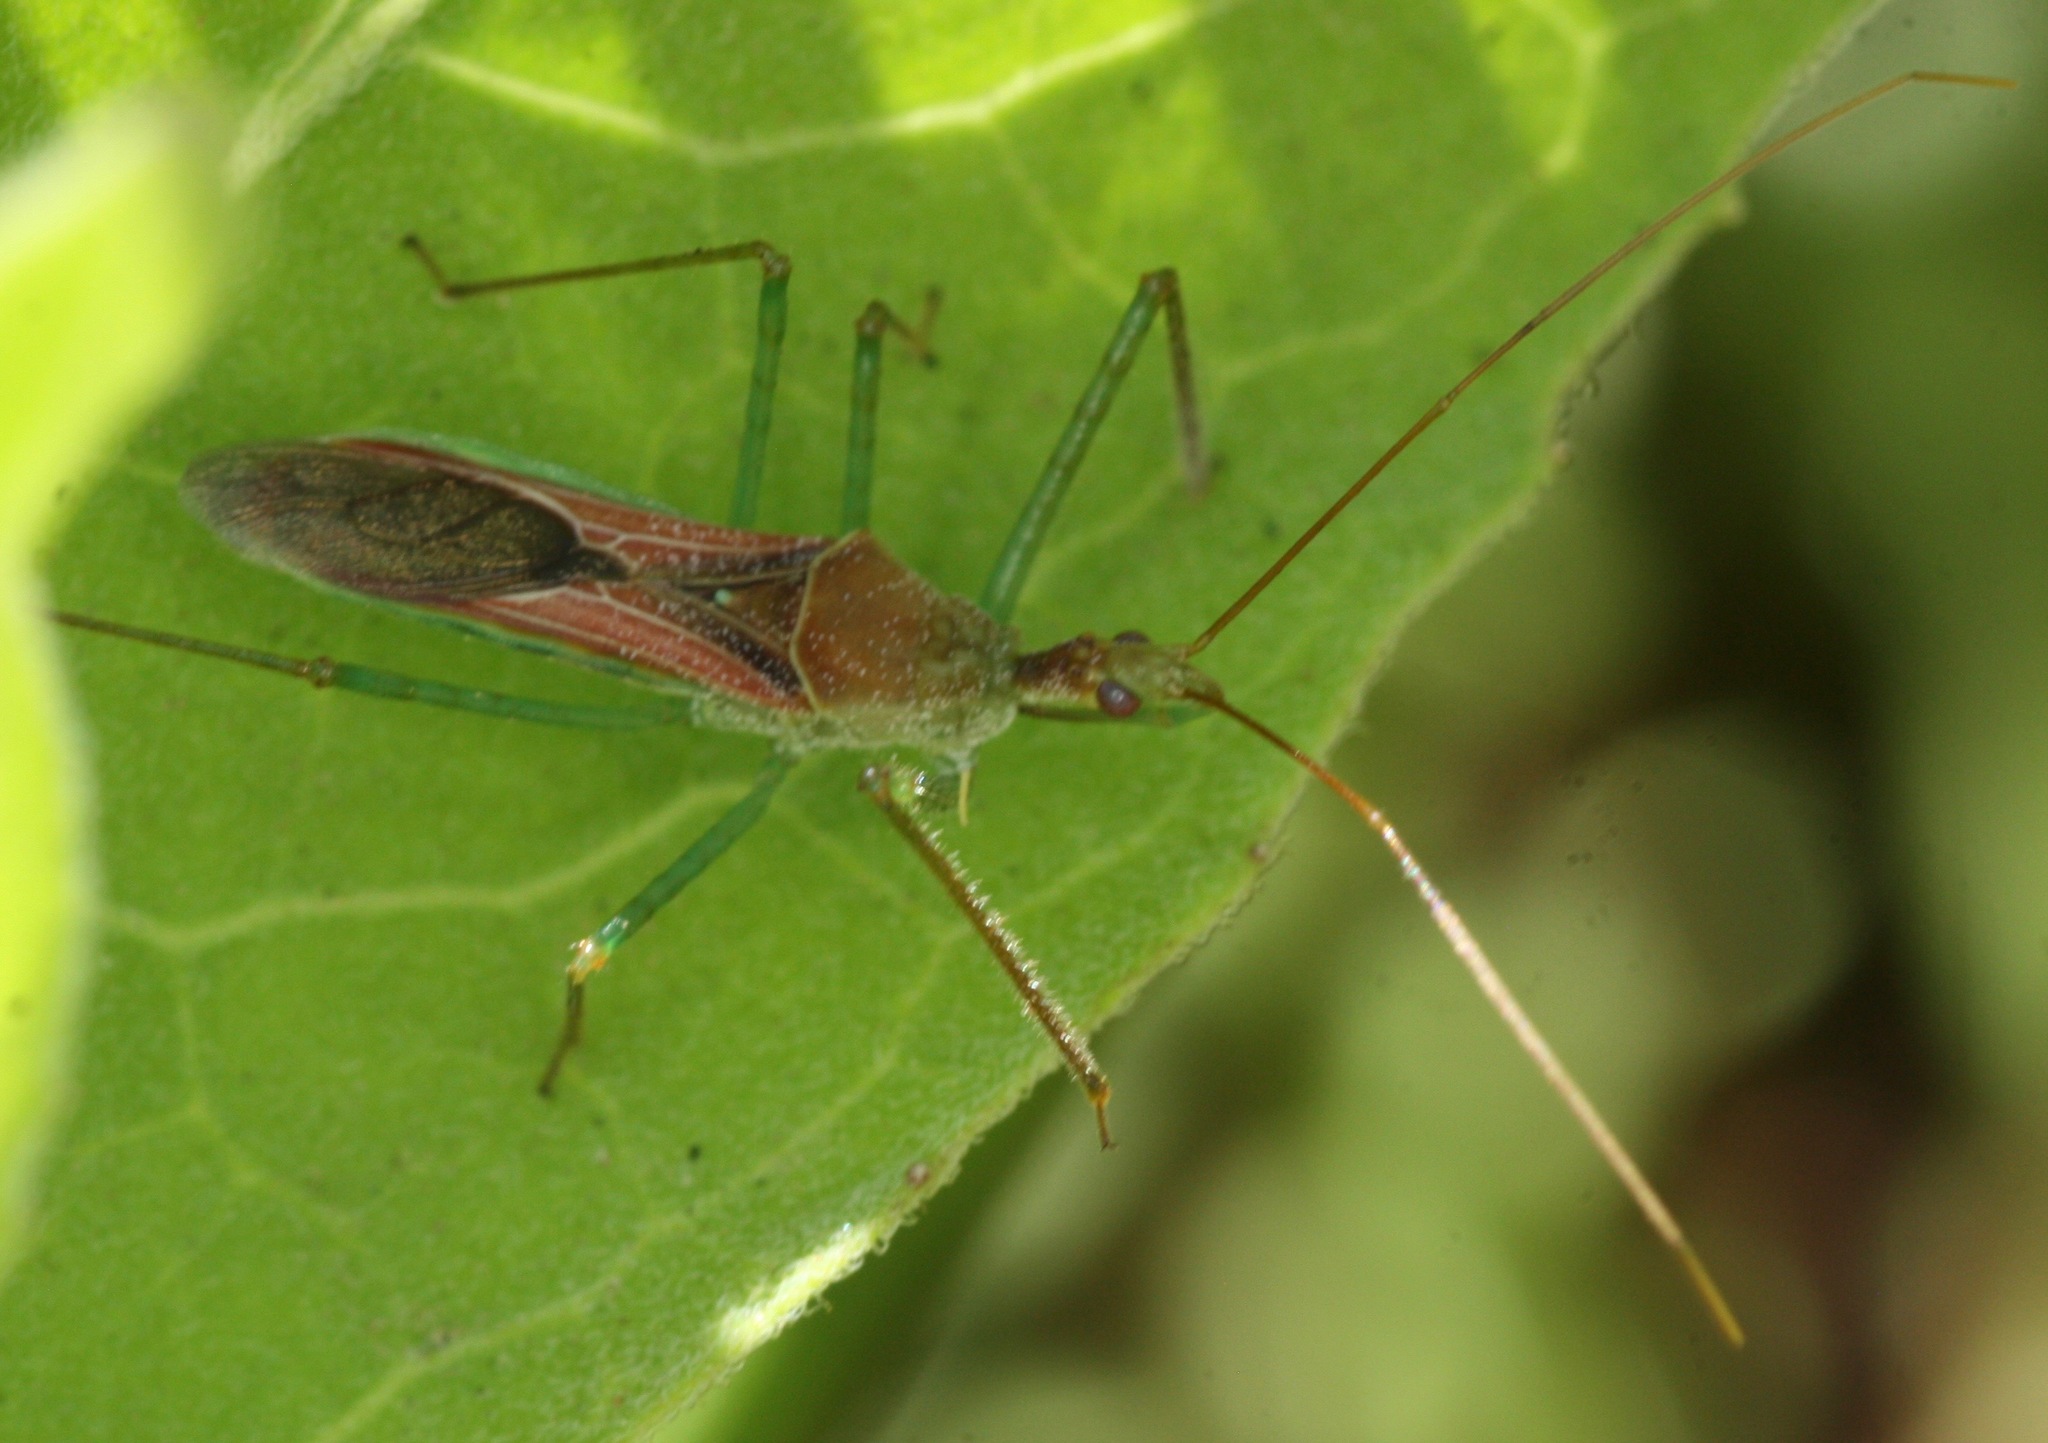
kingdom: Animalia
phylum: Arthropoda
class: Insecta
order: Hemiptera
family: Reduviidae
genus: Zelus
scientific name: Zelus renardii
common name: Assassin bug
